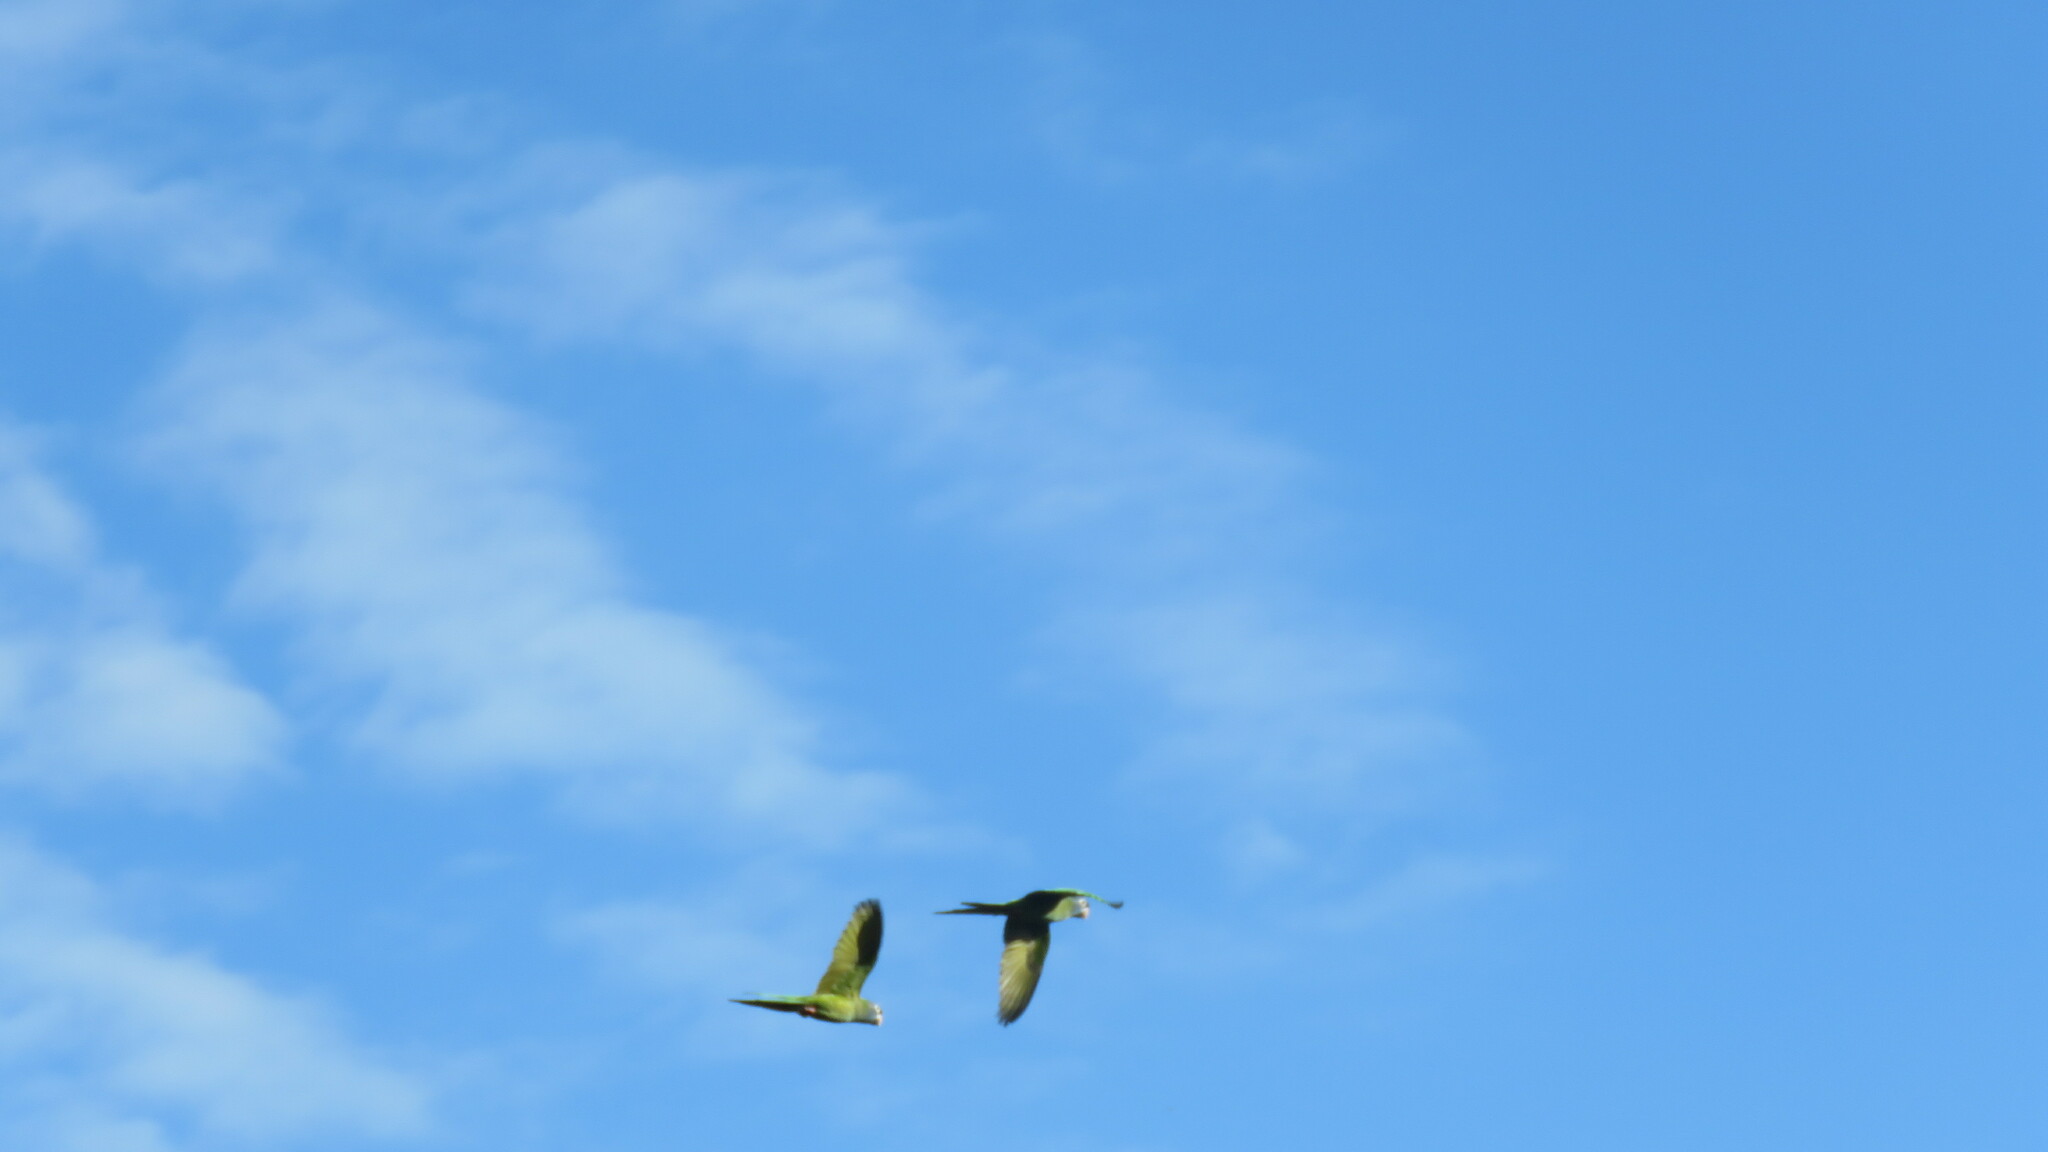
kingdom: Animalia
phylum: Chordata
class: Aves
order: Psittaciformes
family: Psittacidae
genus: Aratinga
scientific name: Aratinga acuticaudata
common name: Blue-crowned parakeet
